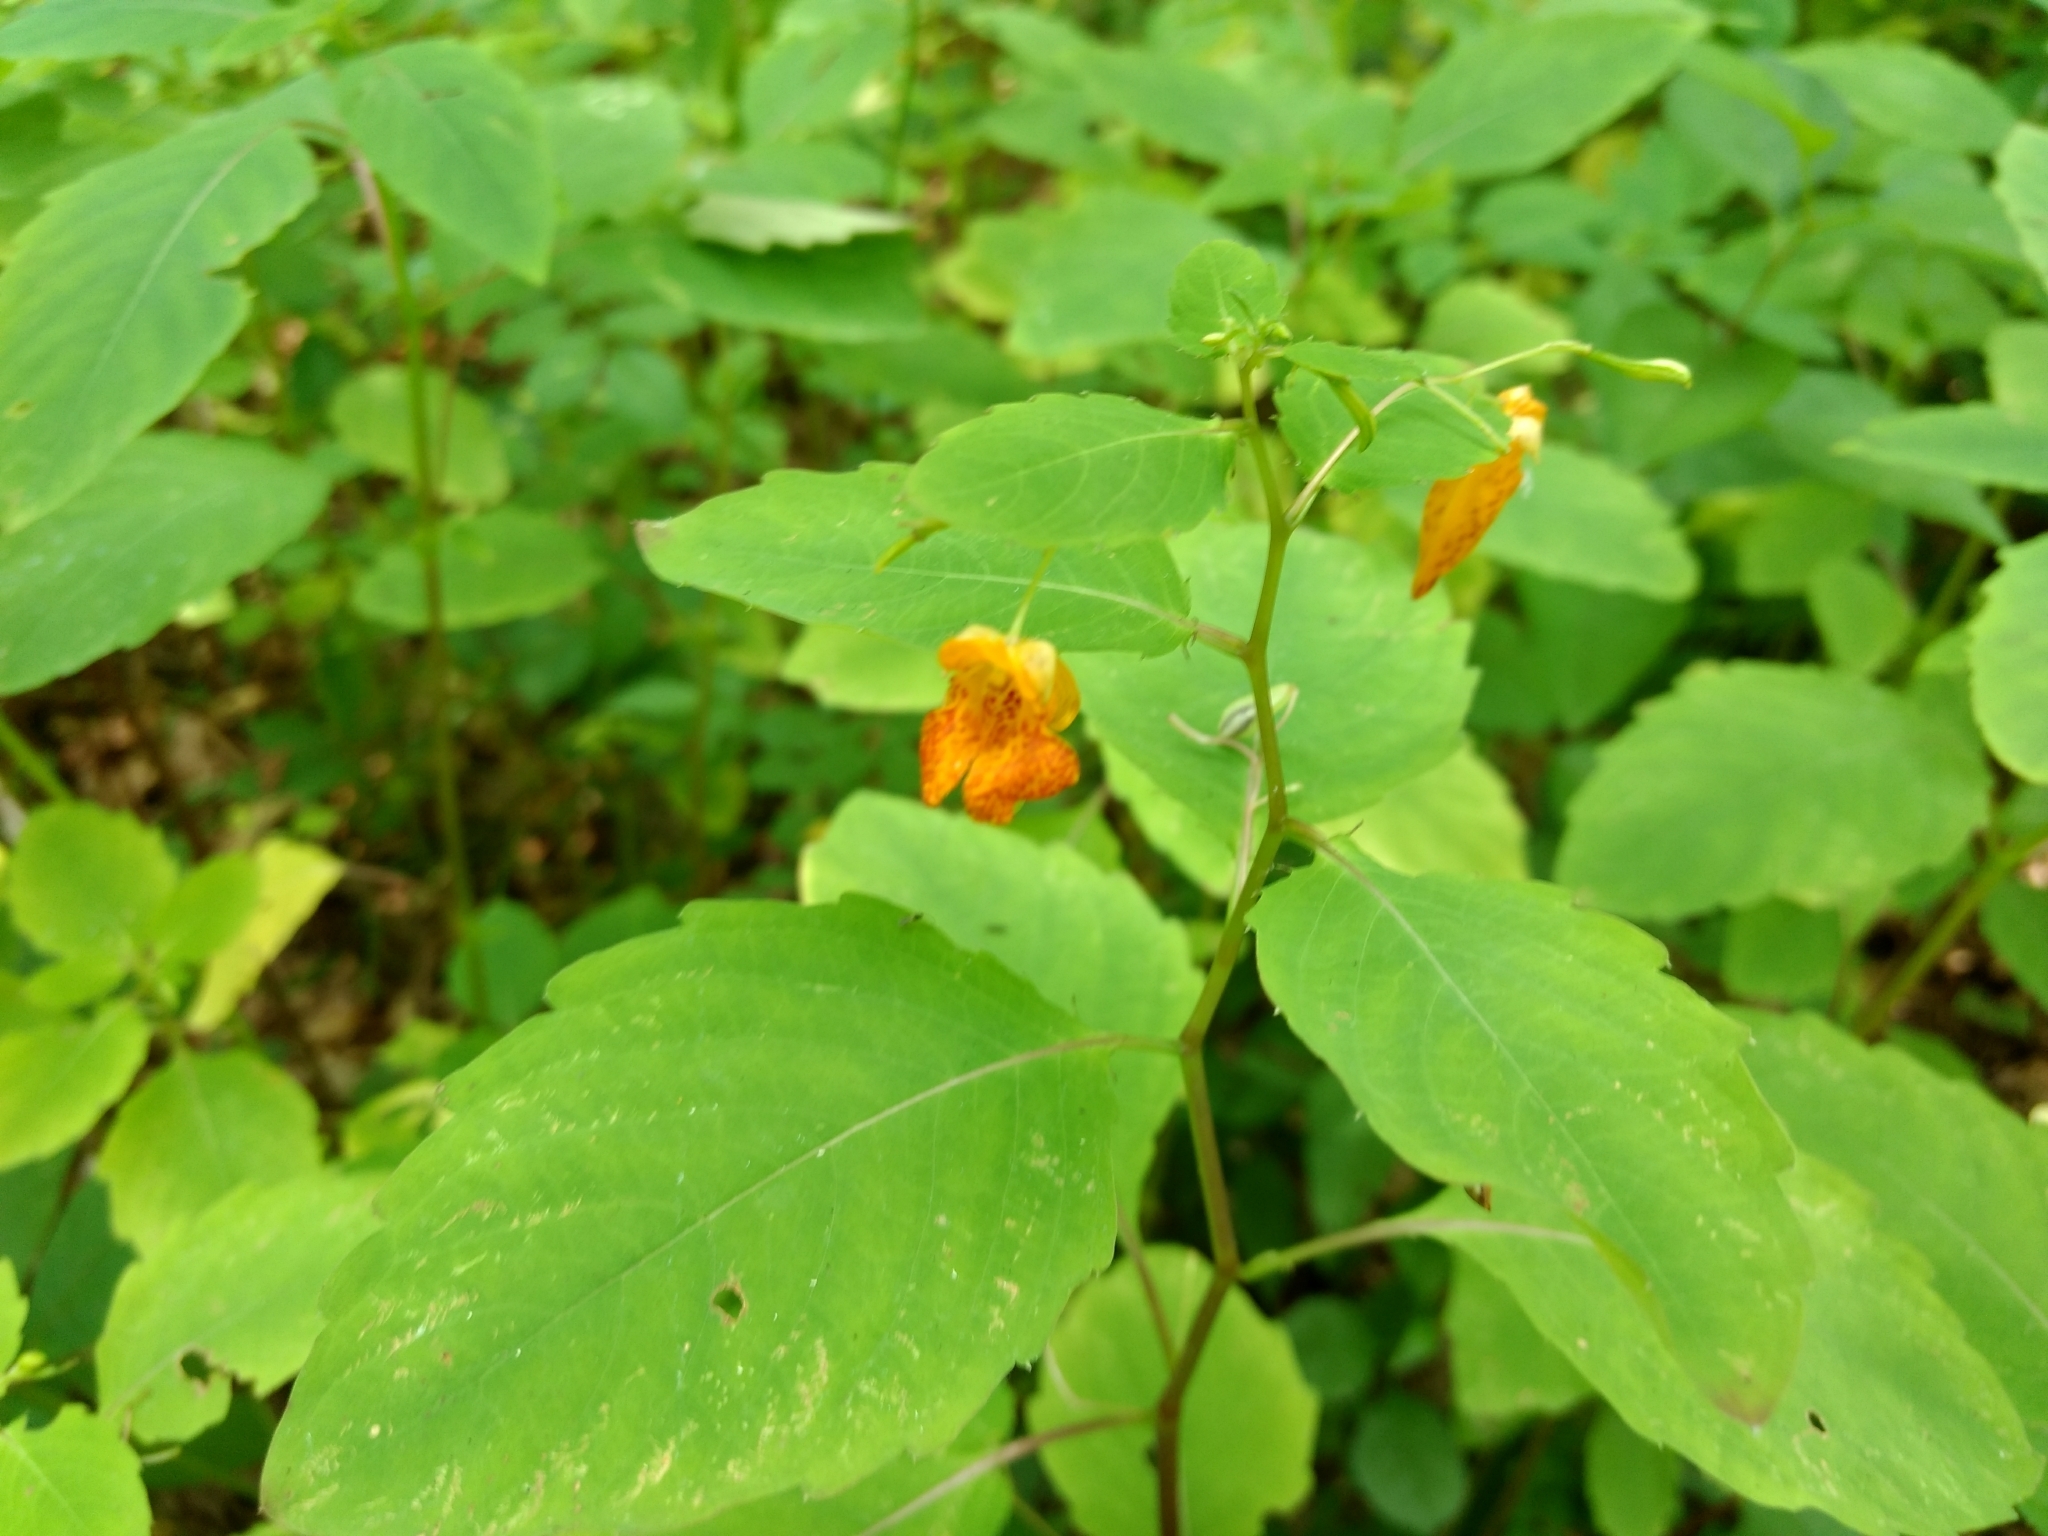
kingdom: Plantae
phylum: Tracheophyta
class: Magnoliopsida
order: Ericales
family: Balsaminaceae
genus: Impatiens
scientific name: Impatiens capensis
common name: Orange balsam
